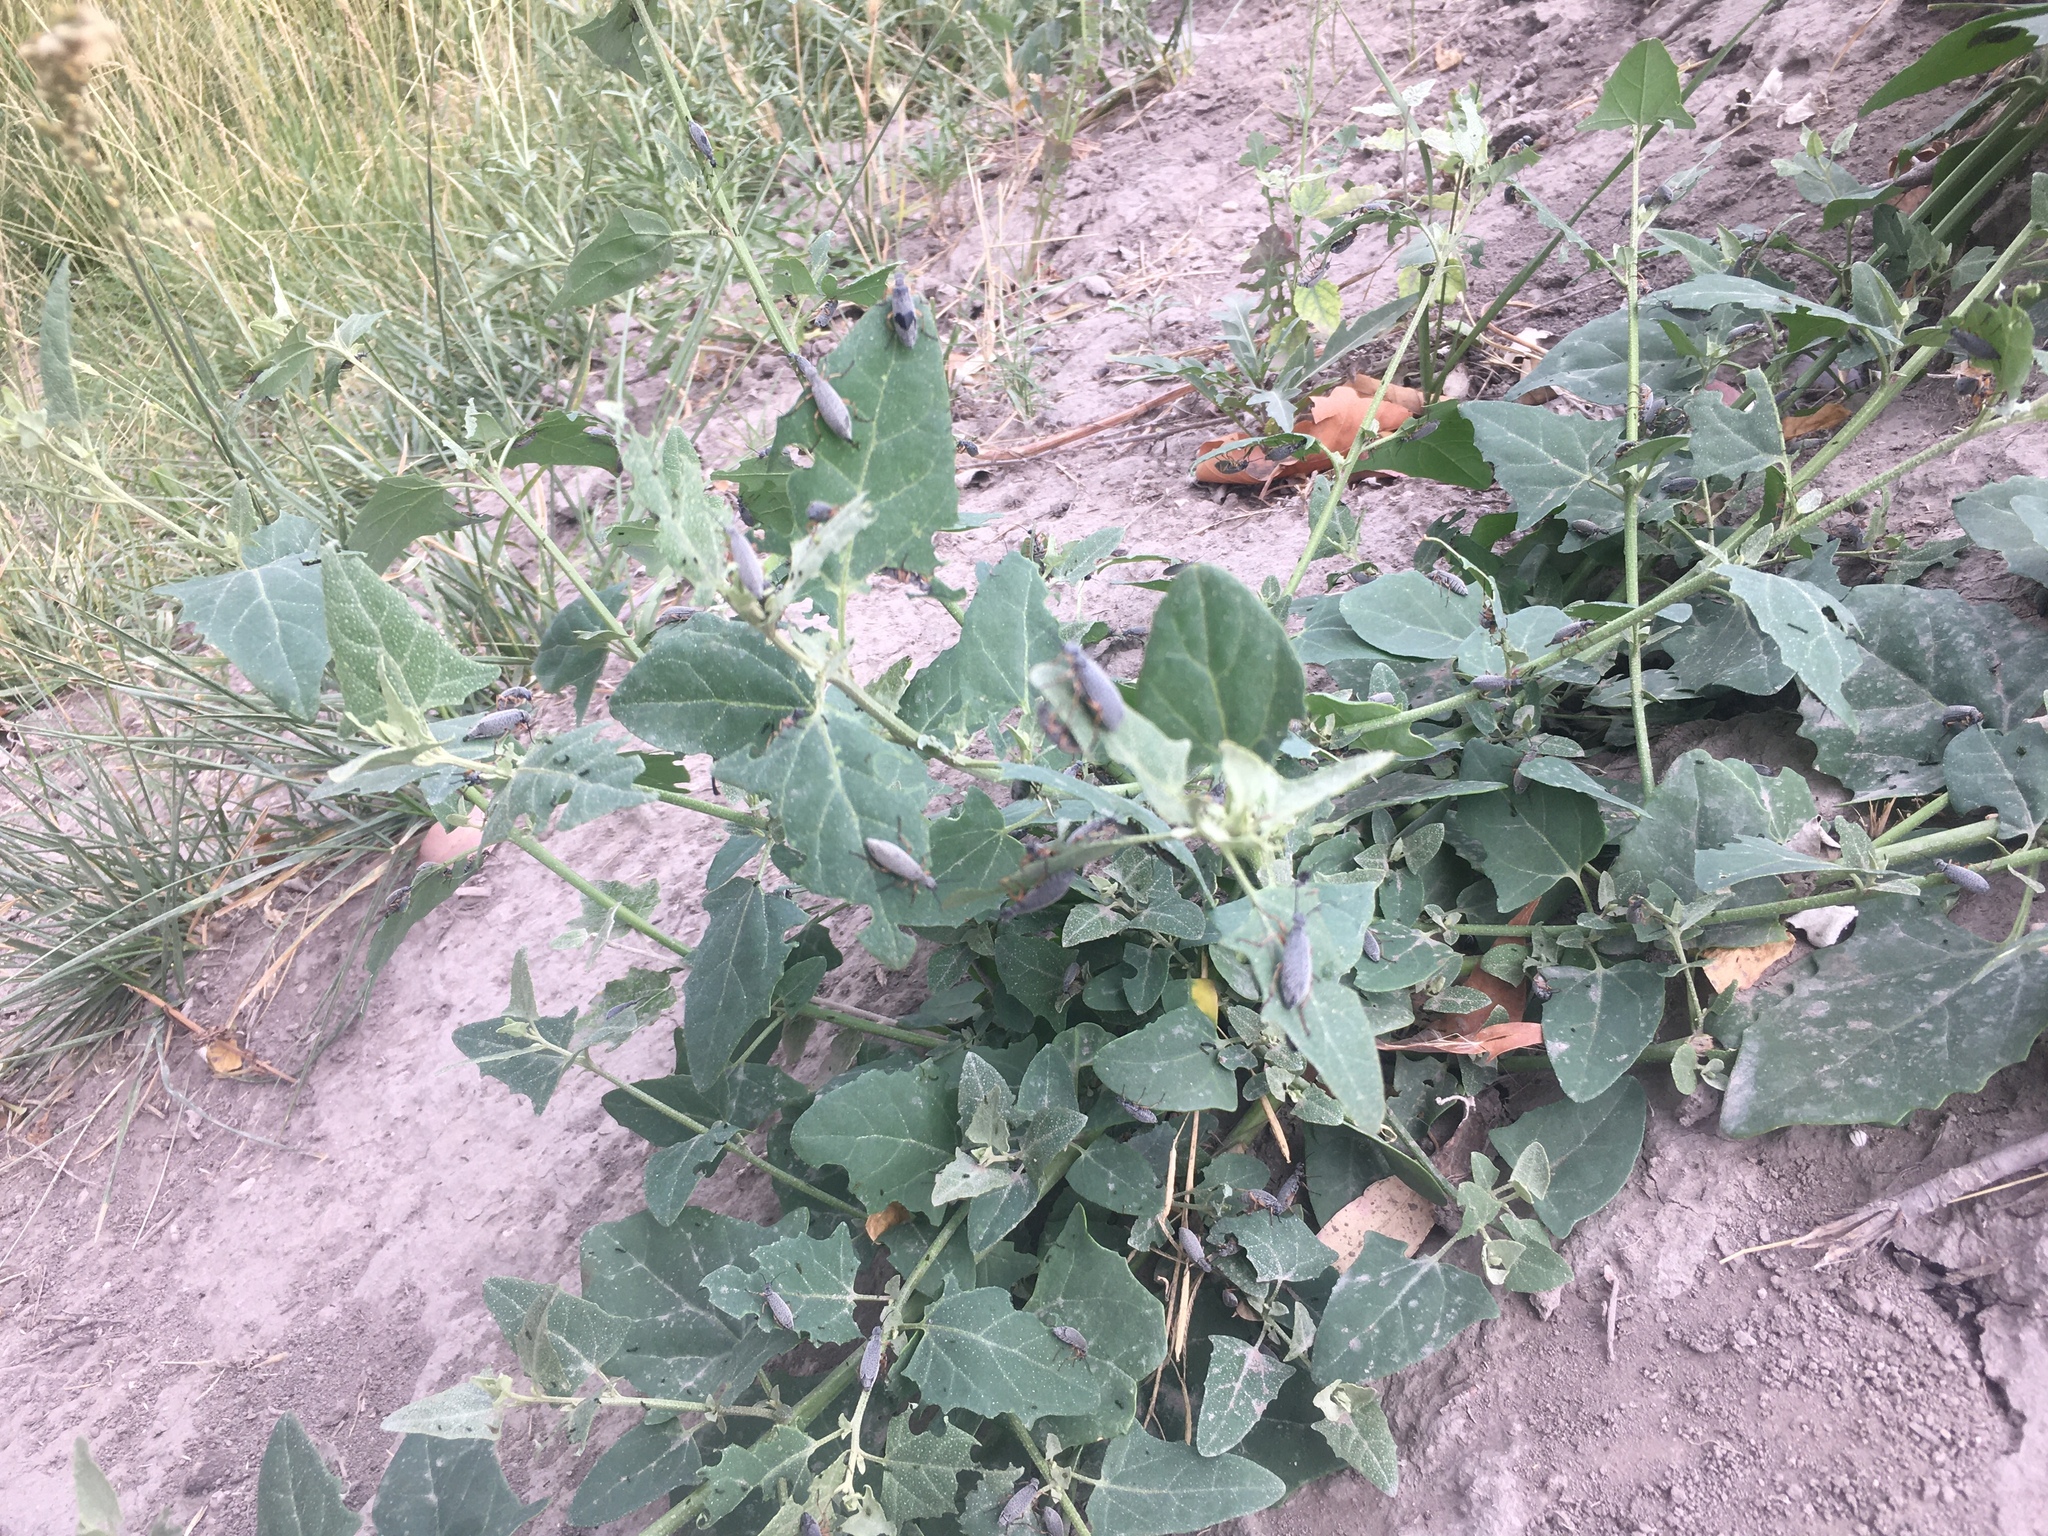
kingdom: Animalia
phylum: Arthropoda
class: Insecta
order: Coleoptera
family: Meloidae
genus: Epicauta
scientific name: Epicauta
